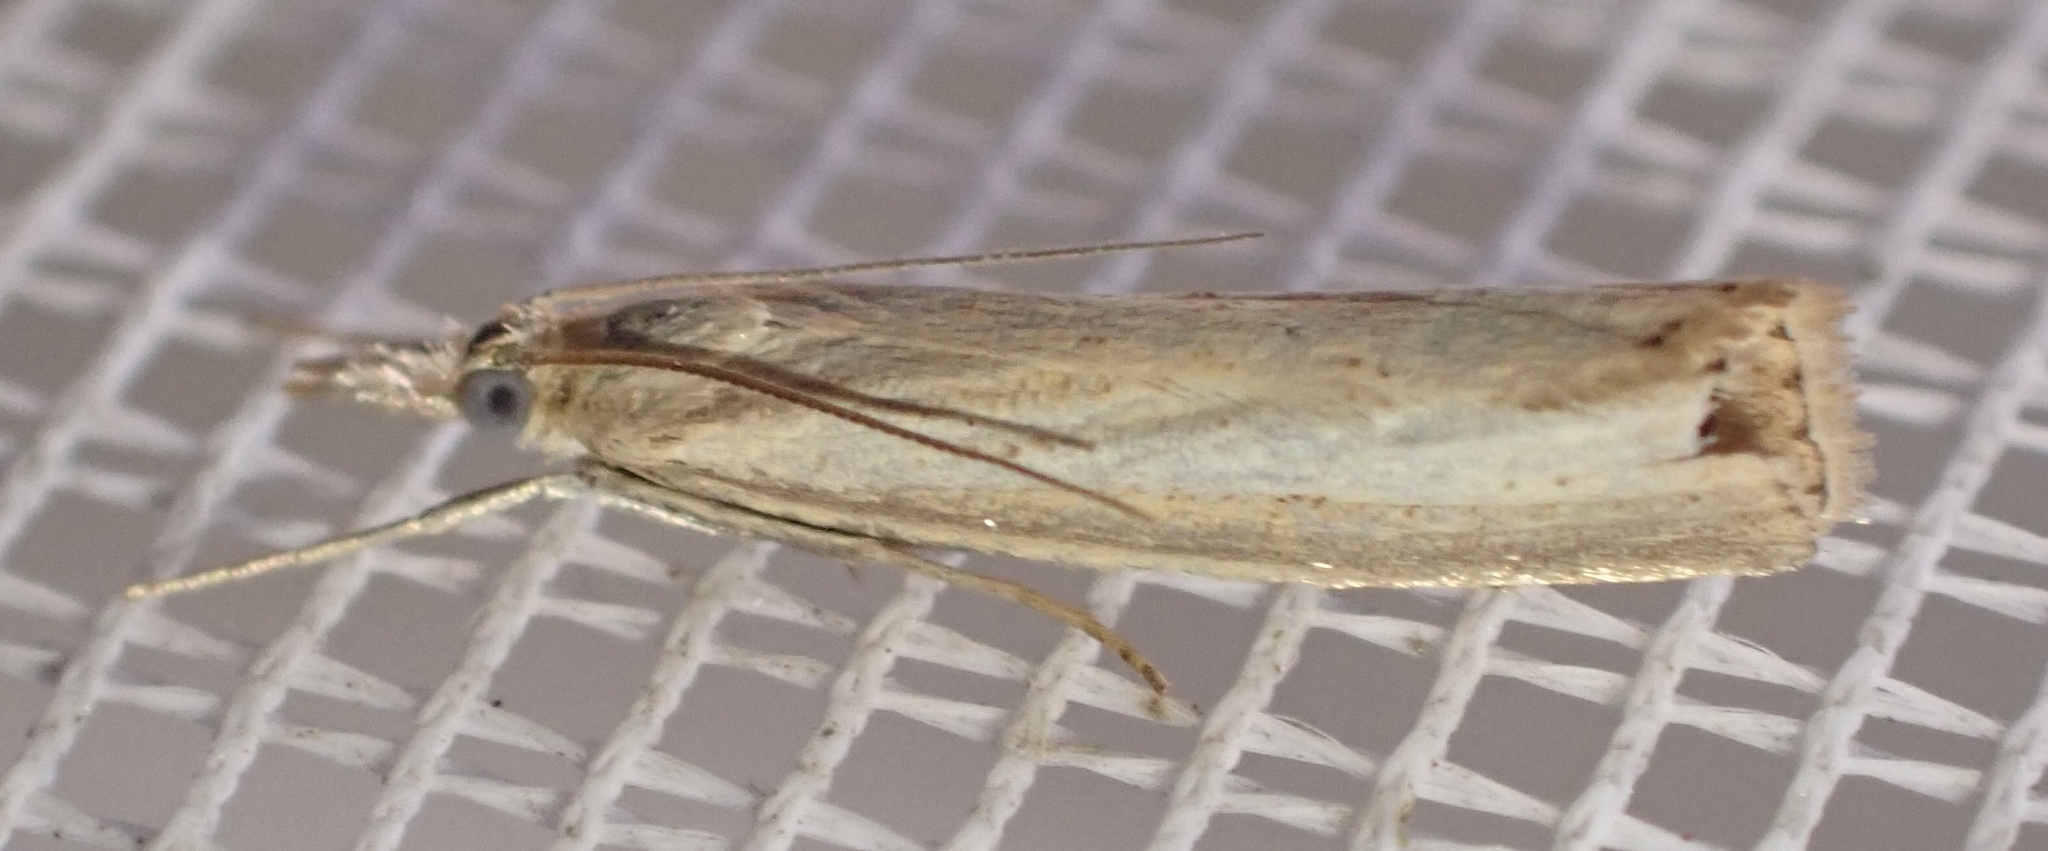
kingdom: Animalia
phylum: Arthropoda
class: Insecta
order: Lepidoptera
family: Crambidae
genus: Agriphila
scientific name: Agriphila straminella
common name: Straw grass-veneer
